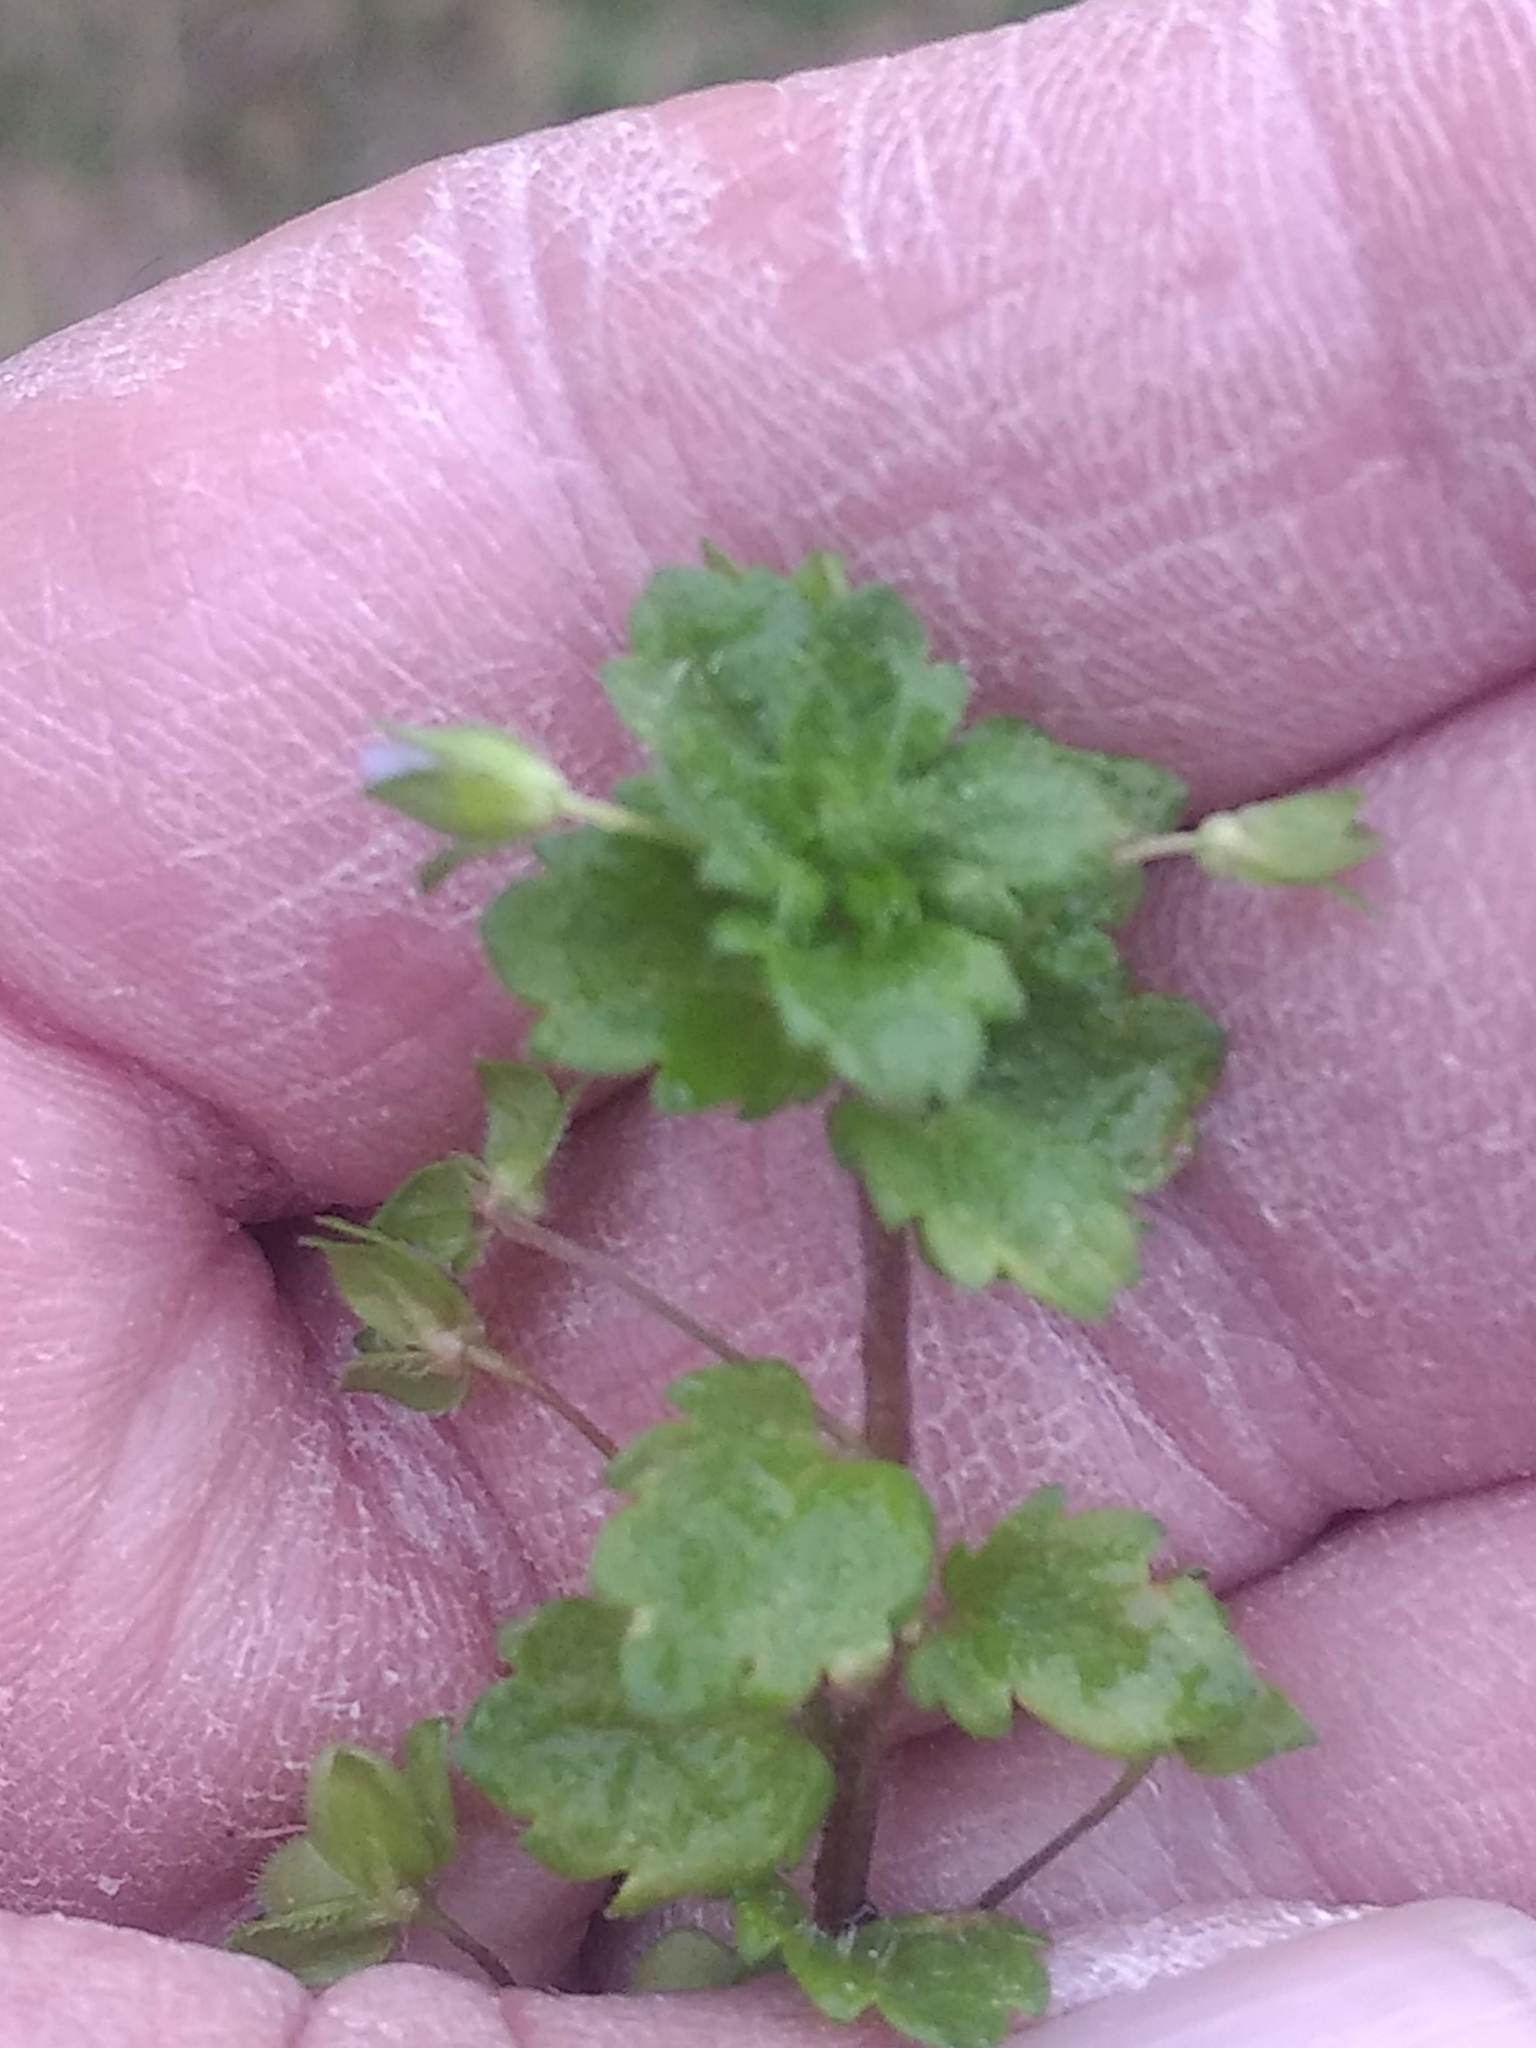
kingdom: Plantae
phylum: Tracheophyta
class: Magnoliopsida
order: Lamiales
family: Plantaginaceae
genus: Veronica
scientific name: Veronica persica
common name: Common field-speedwell
